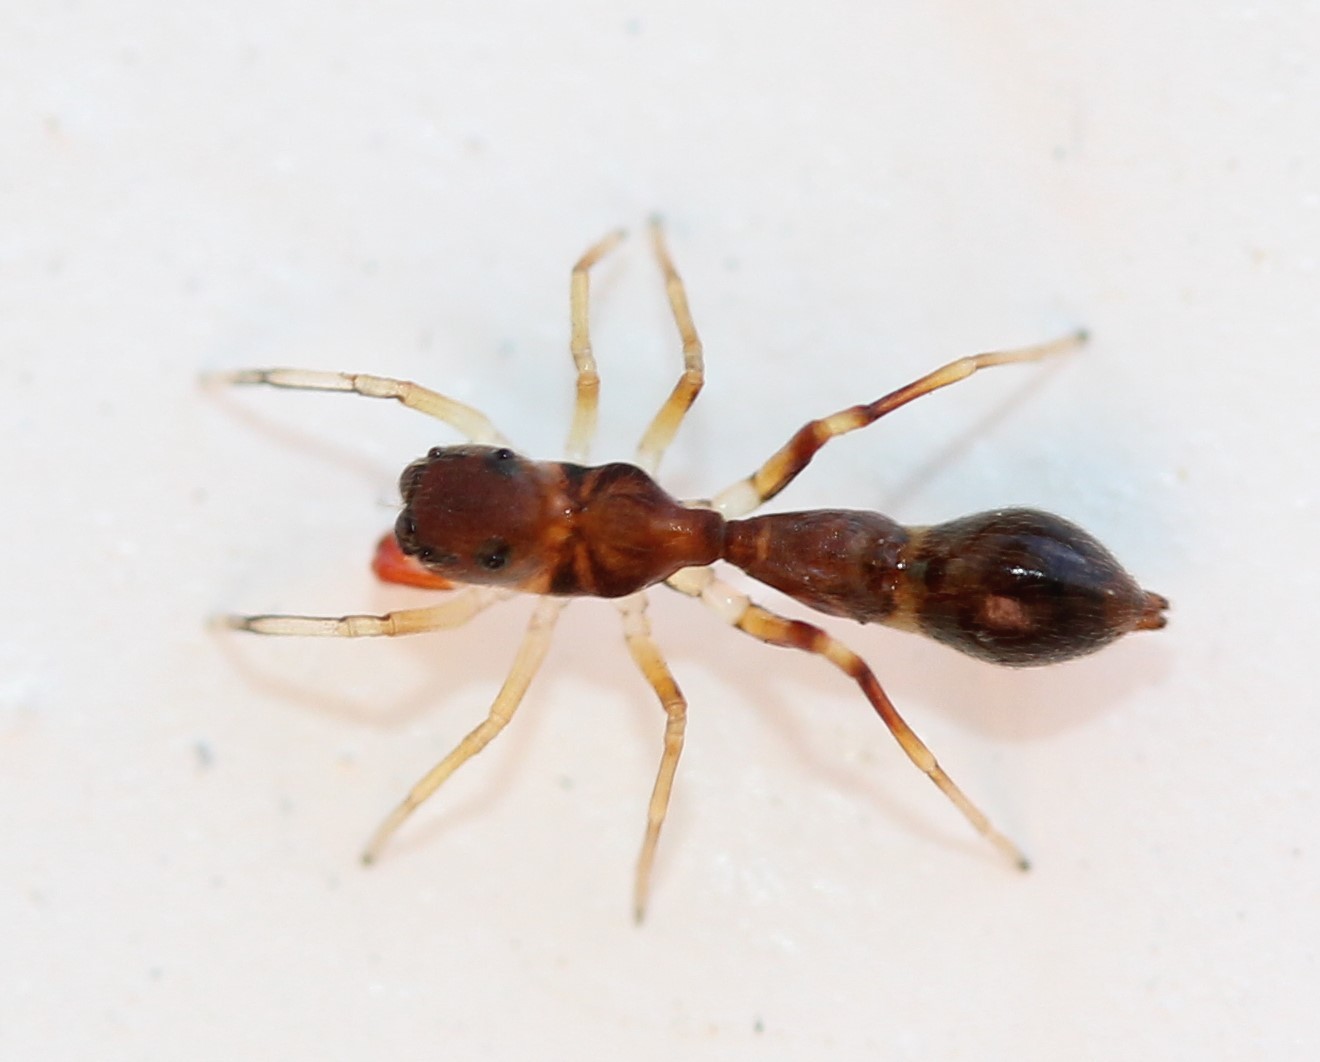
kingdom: Animalia
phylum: Arthropoda
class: Arachnida
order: Araneae
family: Salticidae
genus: Synemosyna
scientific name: Synemosyna formica
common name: Slender ant-mimic jumping spider
